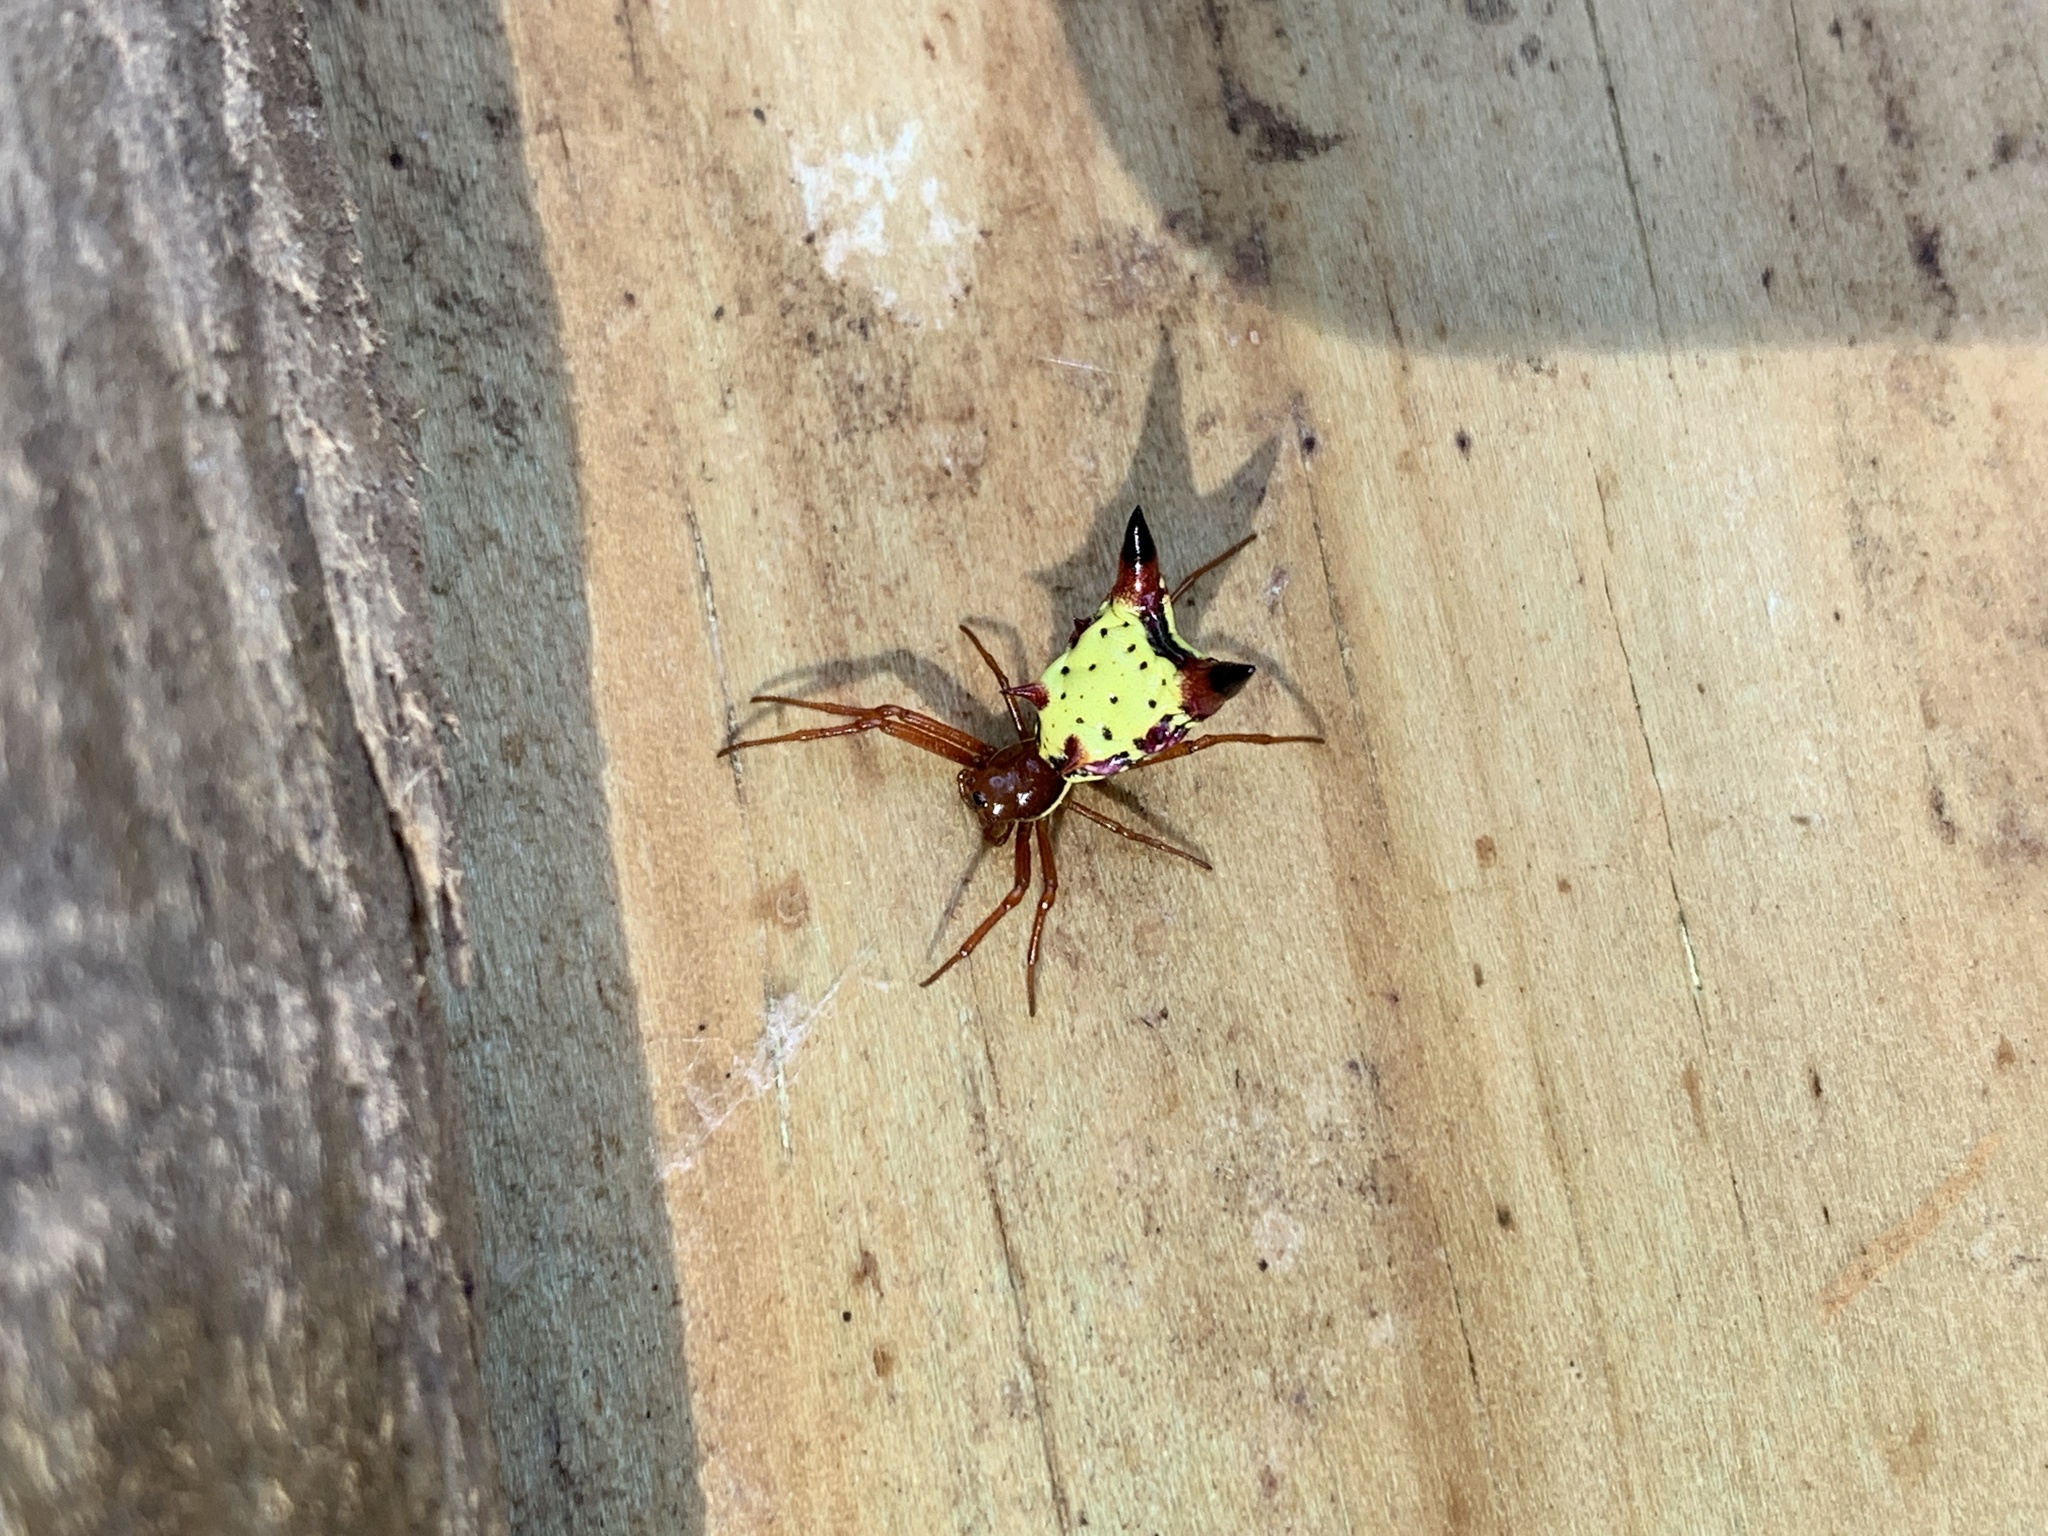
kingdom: Animalia
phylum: Arthropoda
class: Arachnida
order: Araneae
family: Araneidae
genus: Micrathena
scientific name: Micrathena sagittata
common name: Orb weavers
